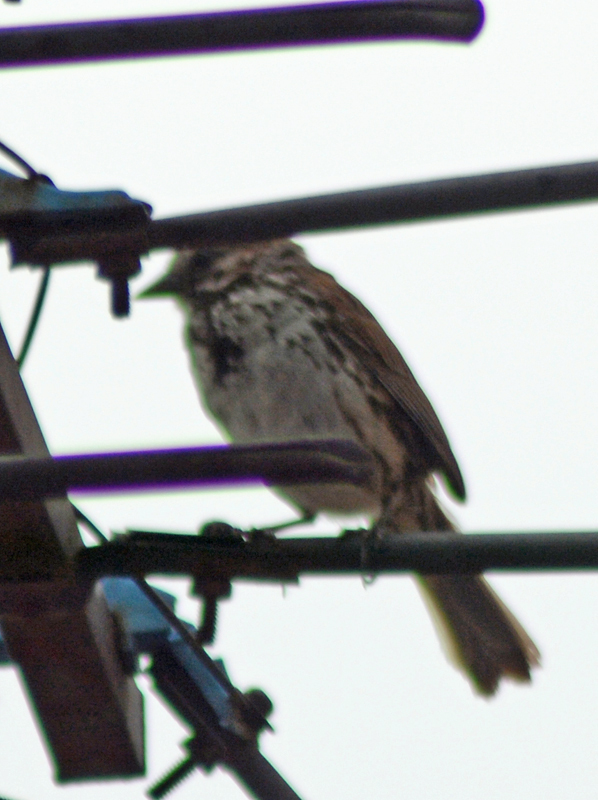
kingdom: Animalia
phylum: Chordata
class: Aves
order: Passeriformes
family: Passerellidae
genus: Melospiza
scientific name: Melospiza melodia
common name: Song sparrow
